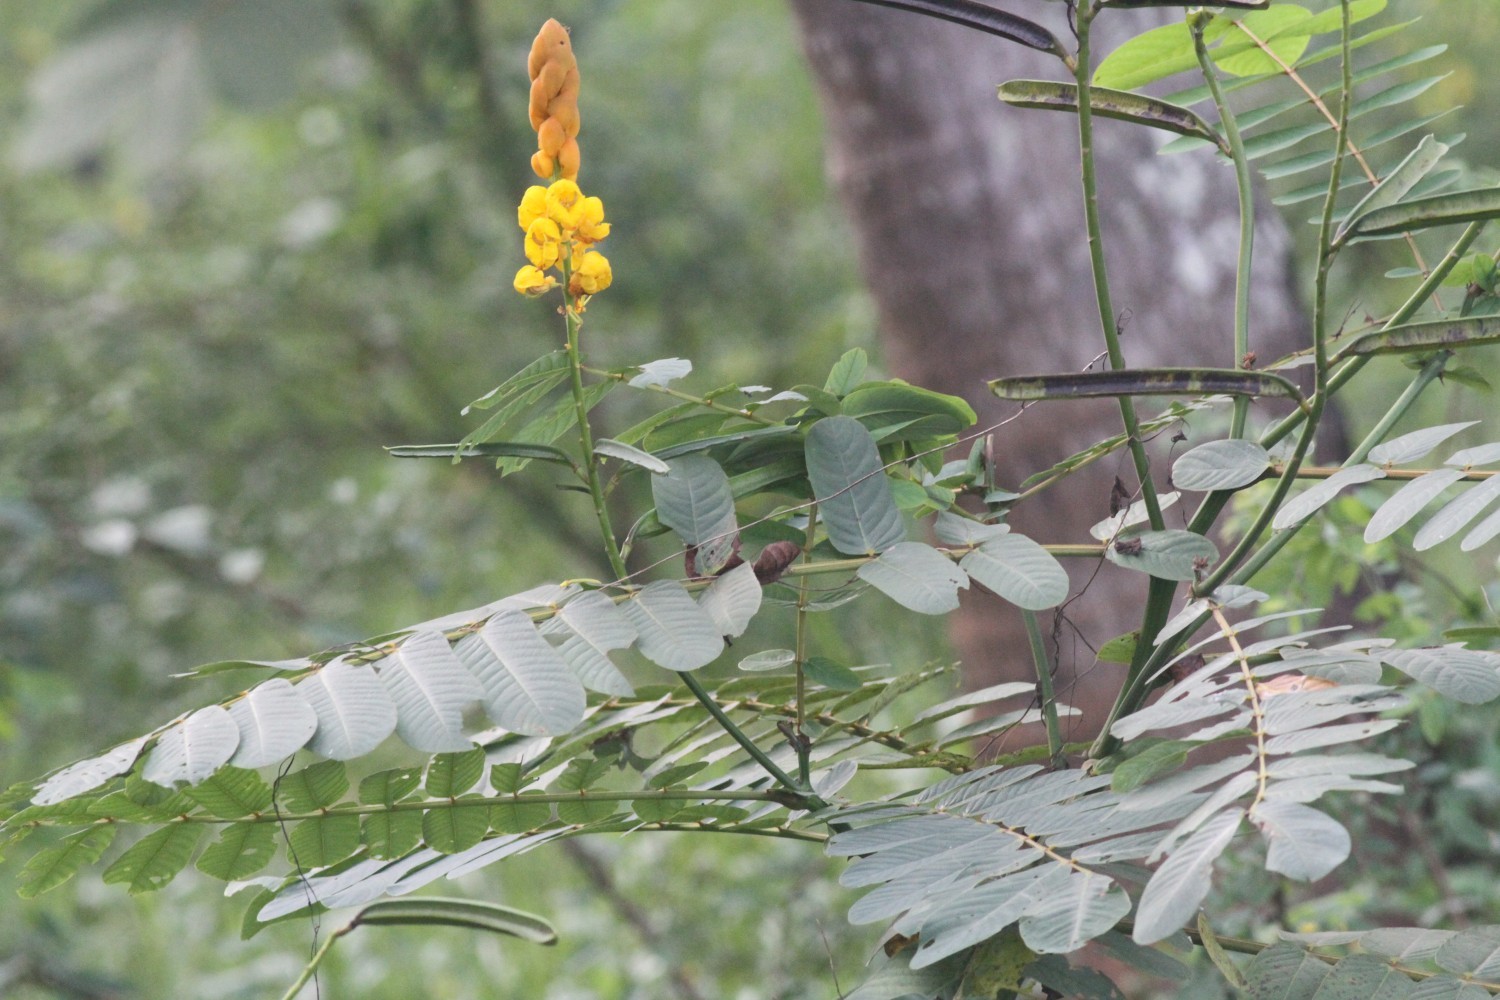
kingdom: Plantae
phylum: Tracheophyta
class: Magnoliopsida
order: Fabales
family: Fabaceae
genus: Senna
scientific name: Senna alata
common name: Emperor's candlesticks
